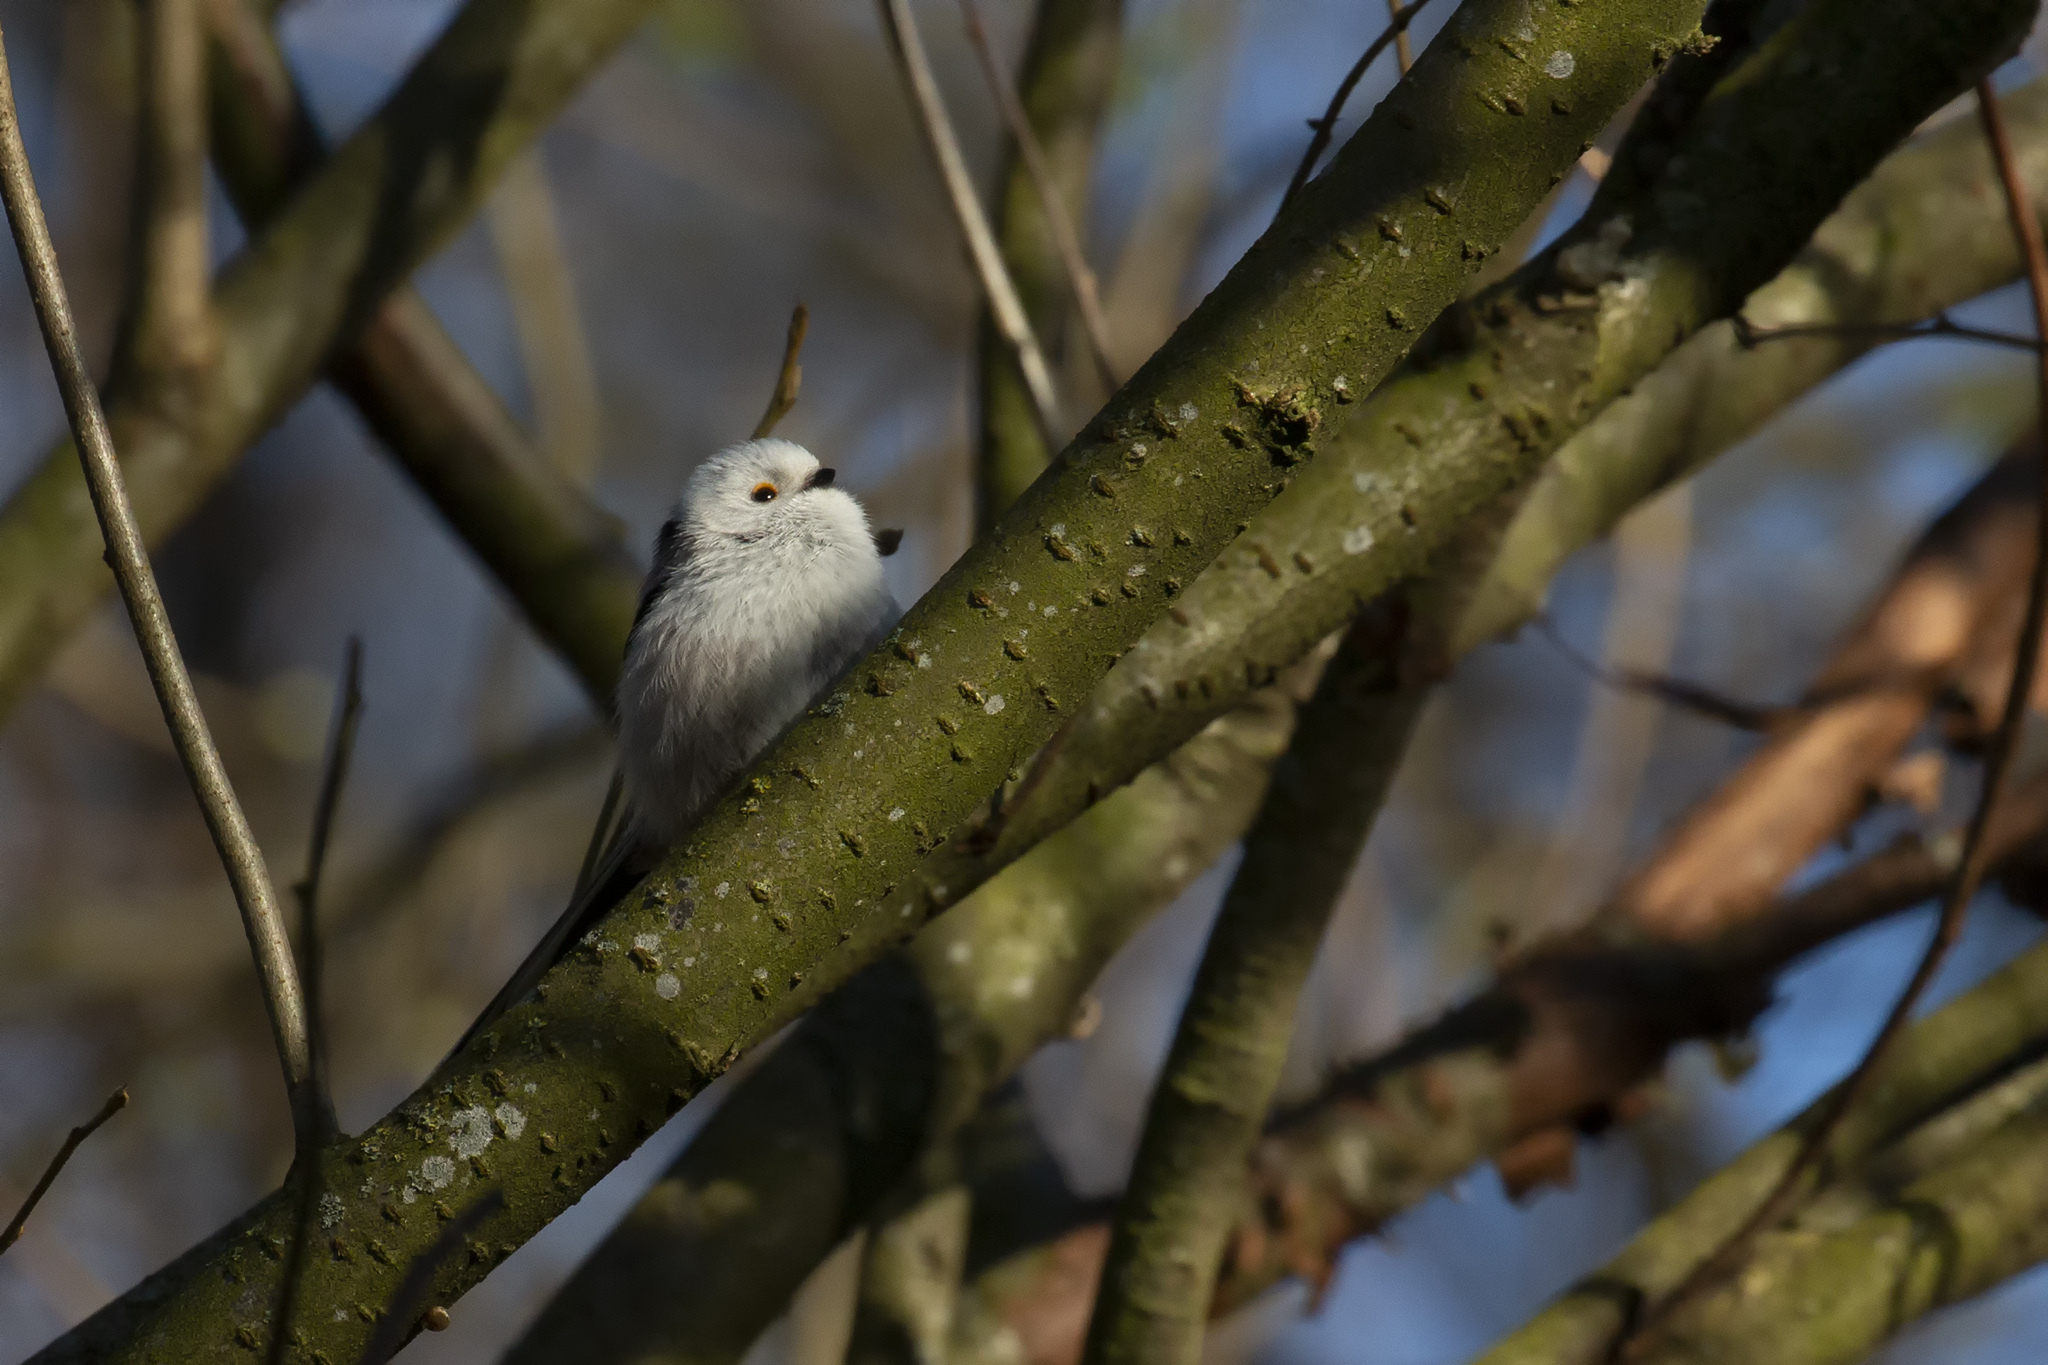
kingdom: Animalia
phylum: Chordata
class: Aves
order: Passeriformes
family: Aegithalidae
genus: Aegithalos
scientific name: Aegithalos caudatus
